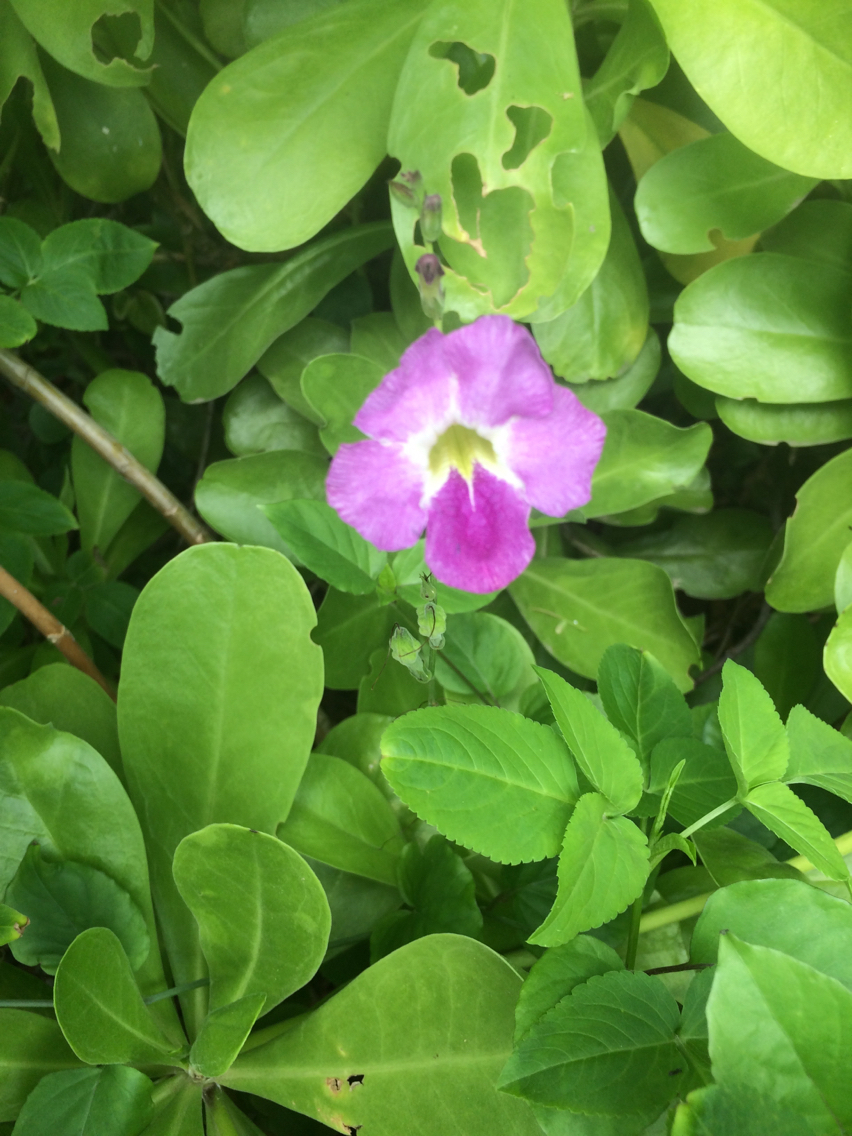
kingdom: Plantae
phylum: Tracheophyta
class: Magnoliopsida
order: Lamiales
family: Acanthaceae
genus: Asystasia
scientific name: Asystasia gangetica
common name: Chinese violet
